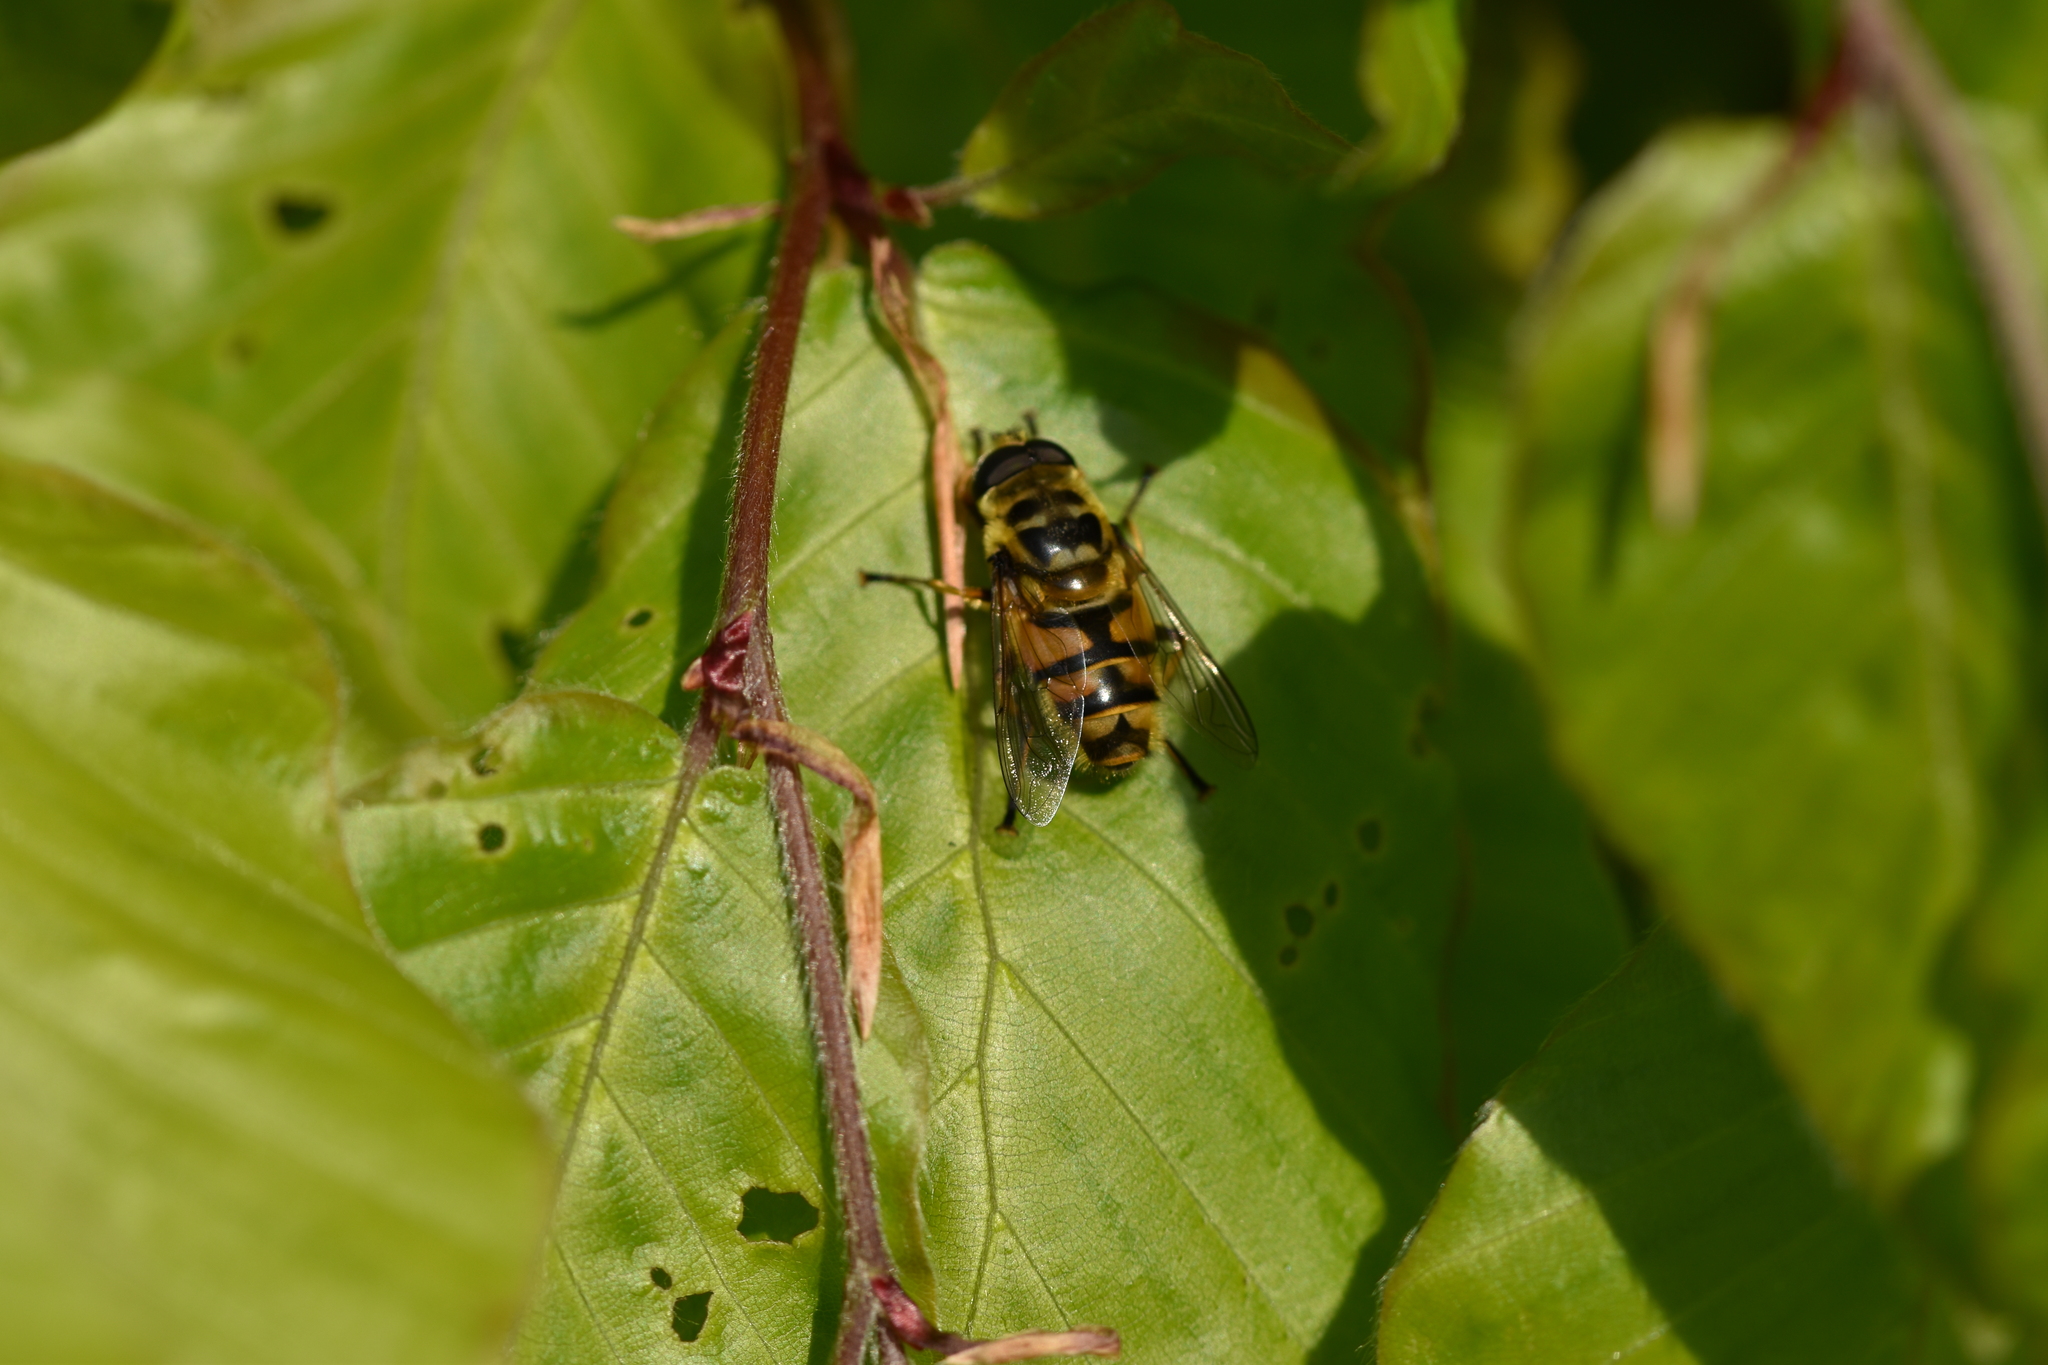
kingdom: Animalia
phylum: Arthropoda
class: Insecta
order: Diptera
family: Syrphidae
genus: Myathropa
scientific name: Myathropa florea
